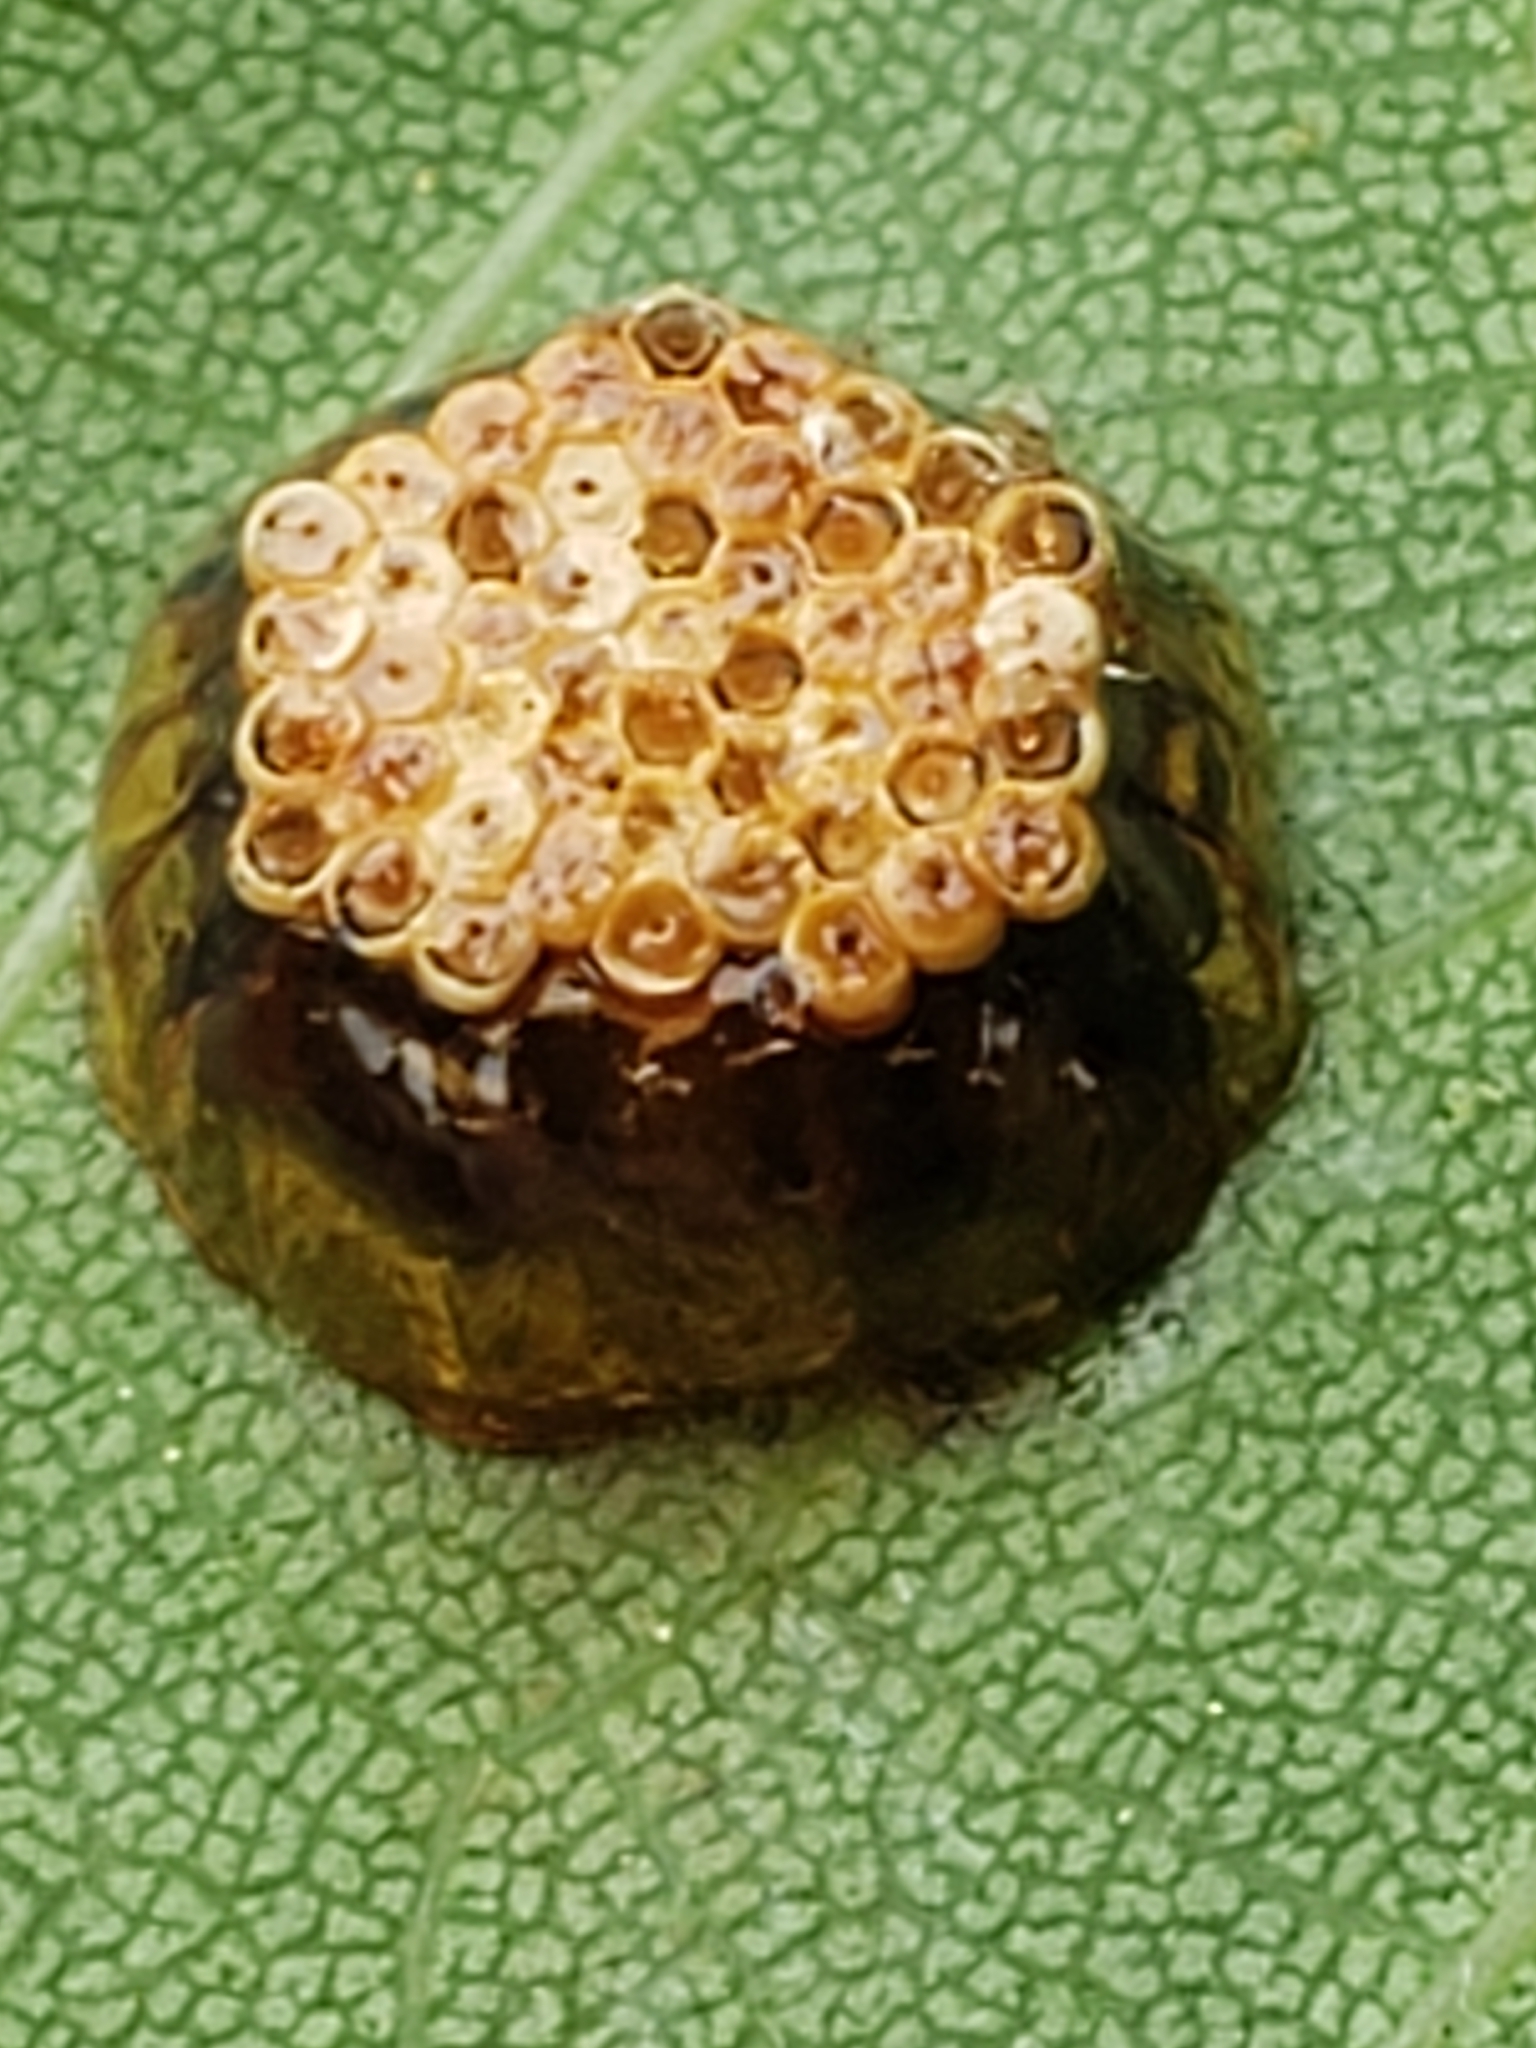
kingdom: Animalia
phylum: Arthropoda
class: Insecta
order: Hemiptera
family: Reduviidae
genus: Arilus
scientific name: Arilus cristatus
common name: North american wheel bug
